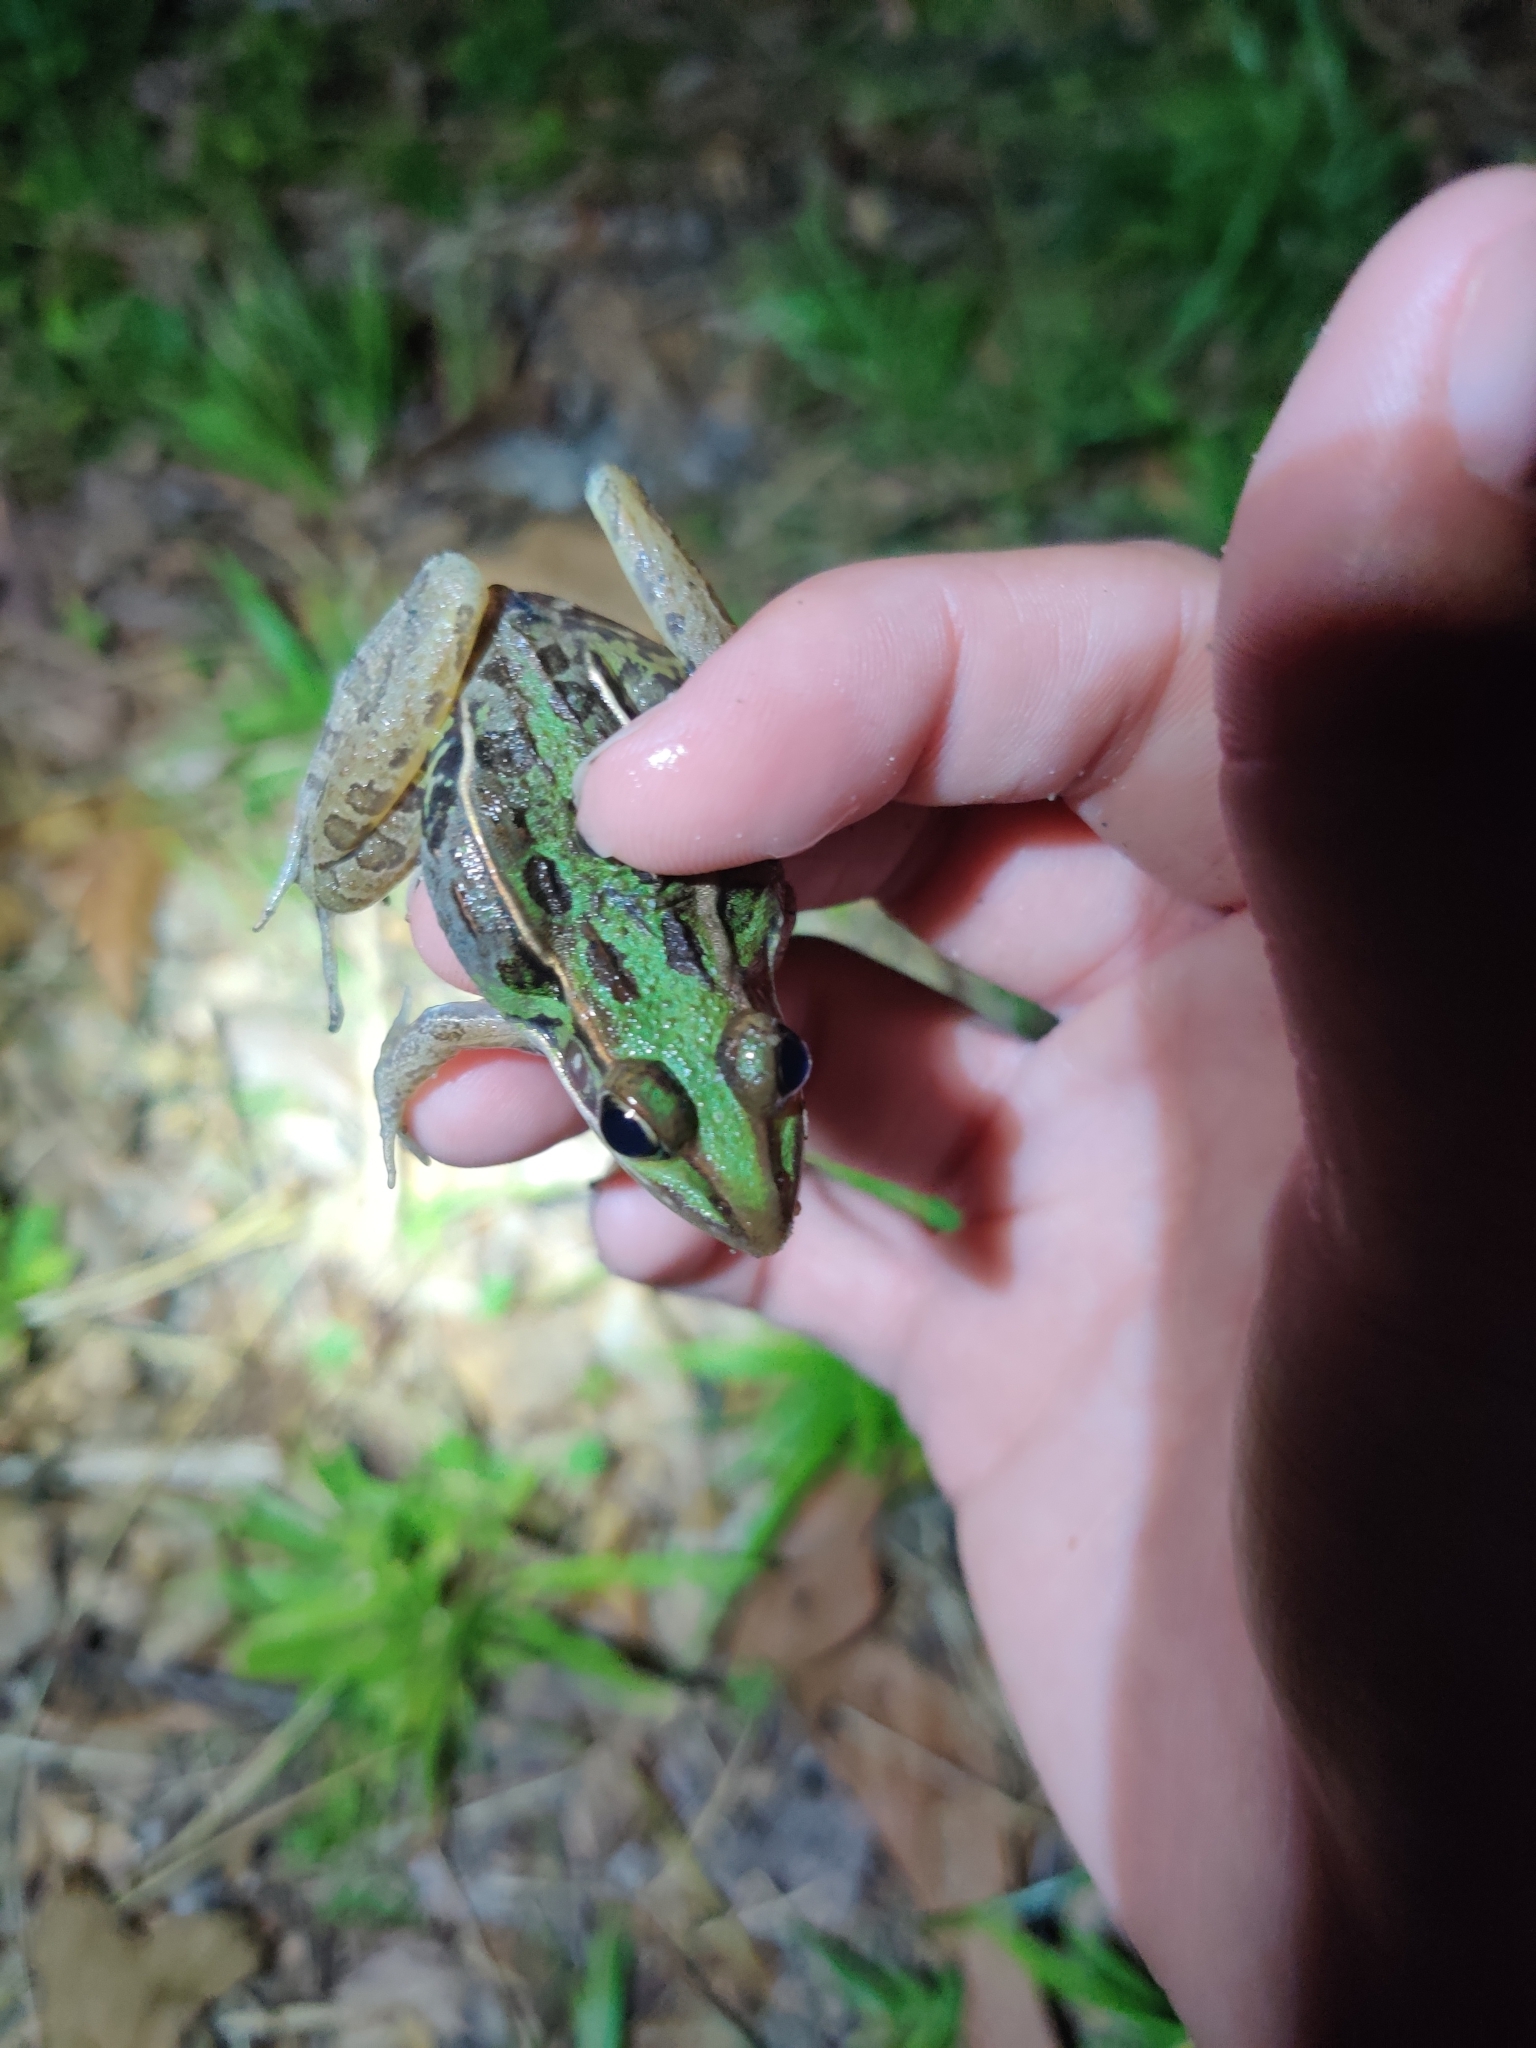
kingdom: Animalia
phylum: Chordata
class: Amphibia
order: Anura
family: Ranidae
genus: Lithobates
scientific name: Lithobates sphenocephalus
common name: Southern leopard frog
